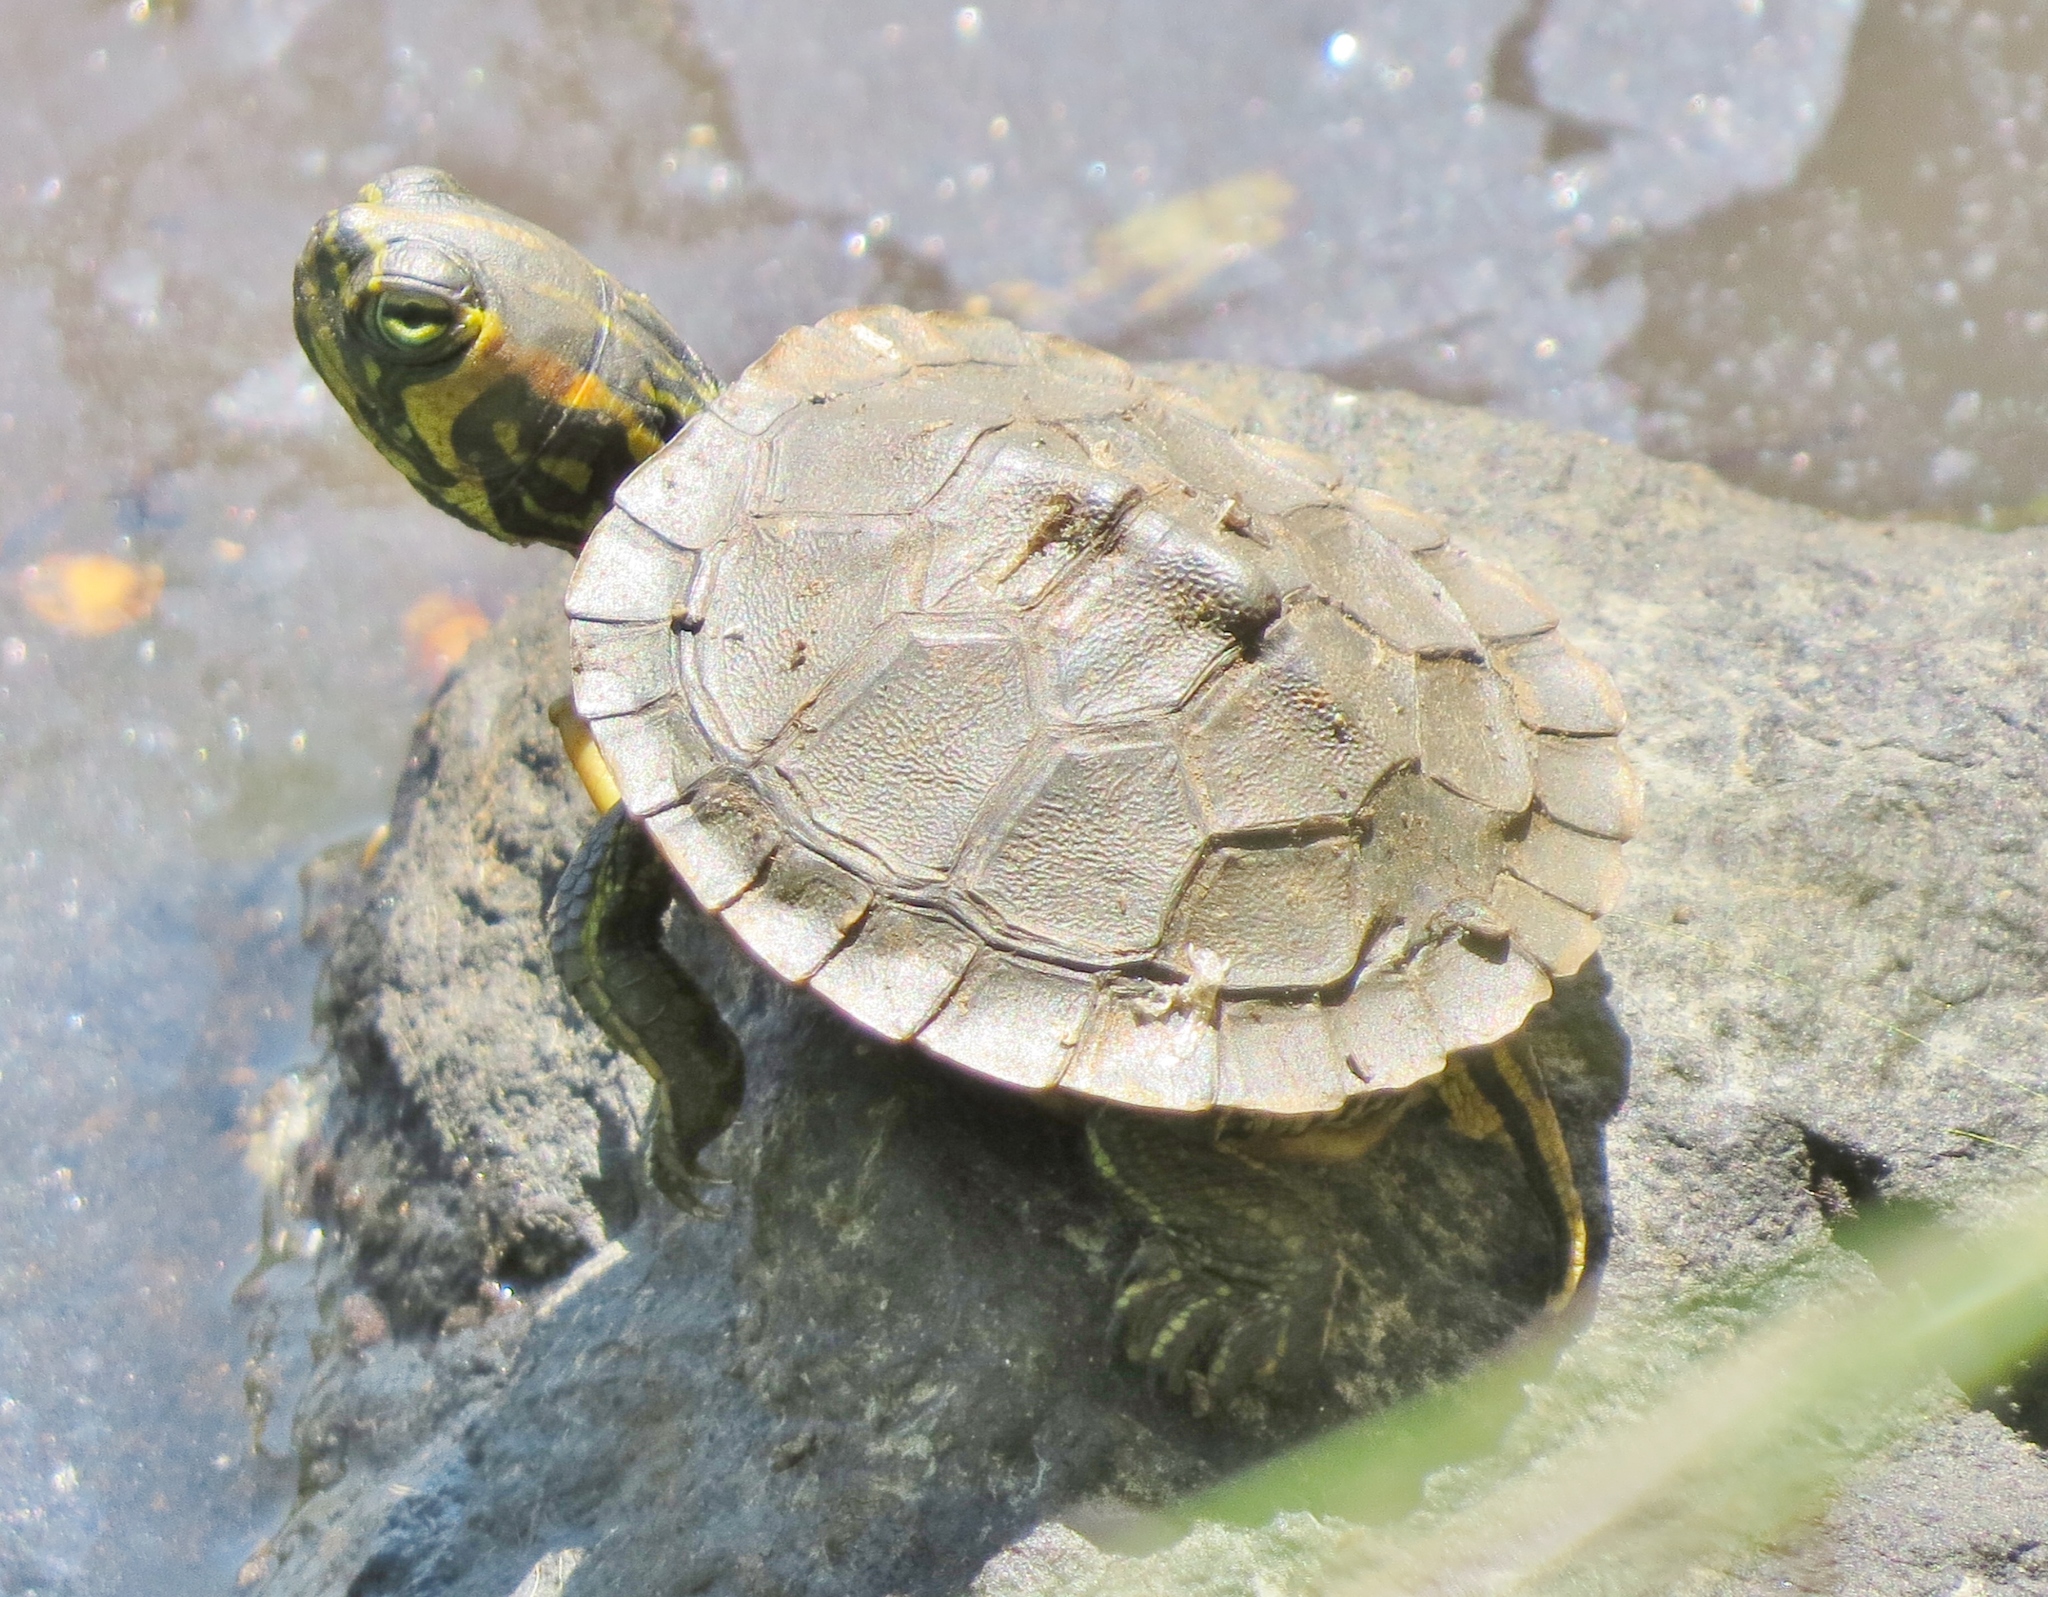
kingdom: Animalia
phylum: Chordata
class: Testudines
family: Emydidae
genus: Trachemys
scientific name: Trachemys scripta
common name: Slider
